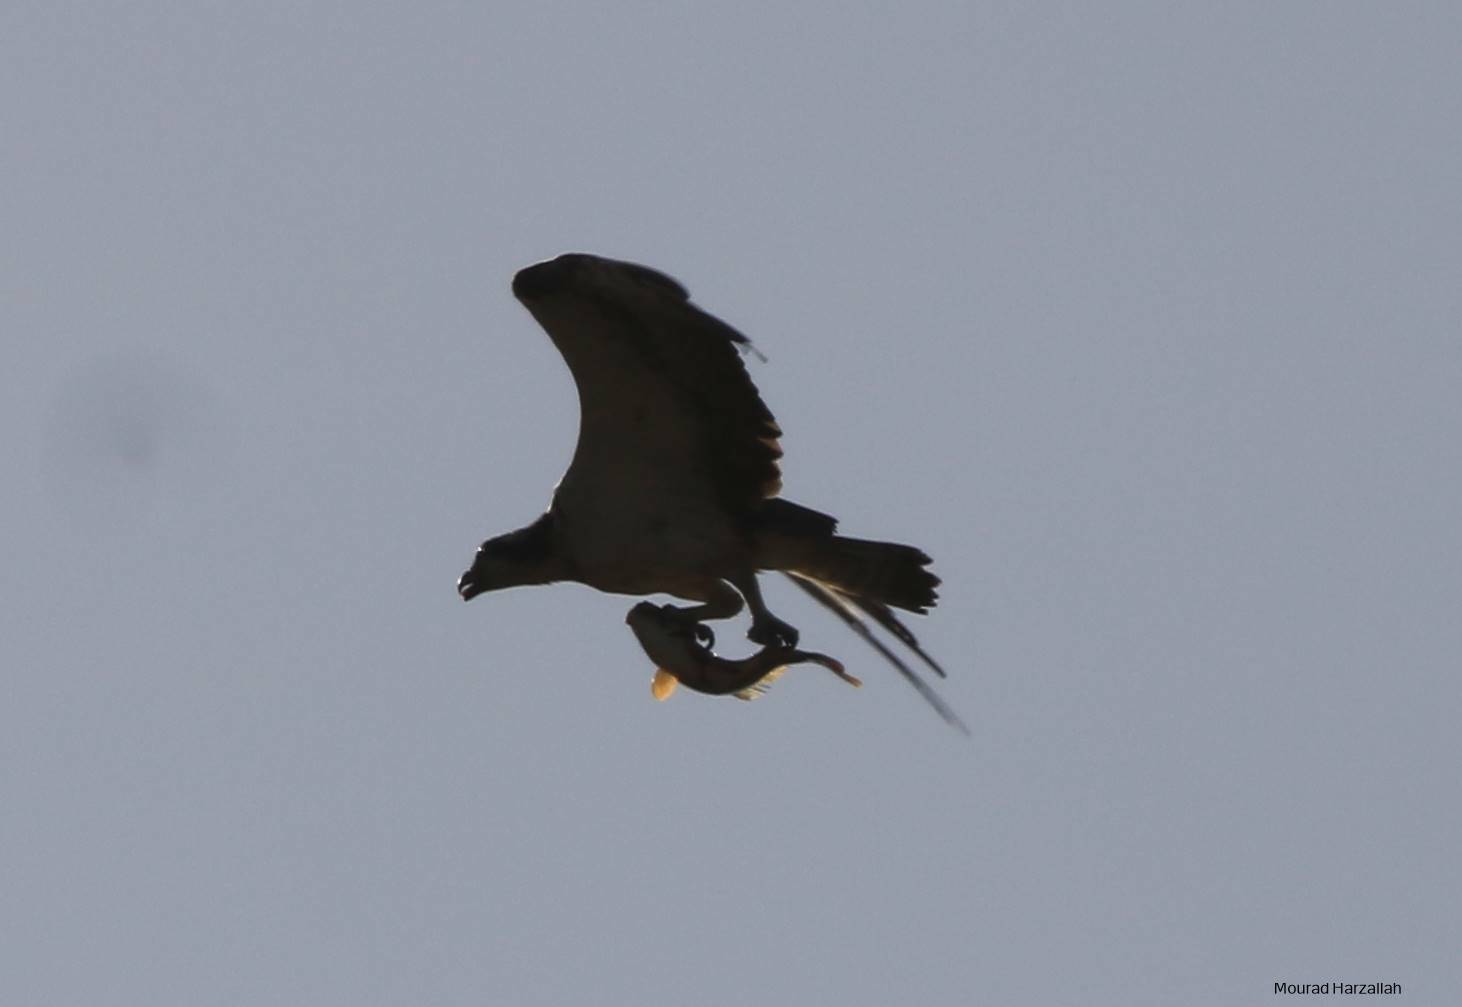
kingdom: Animalia
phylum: Chordata
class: Aves
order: Accipitriformes
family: Pandionidae
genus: Pandion
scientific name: Pandion haliaetus
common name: Osprey
